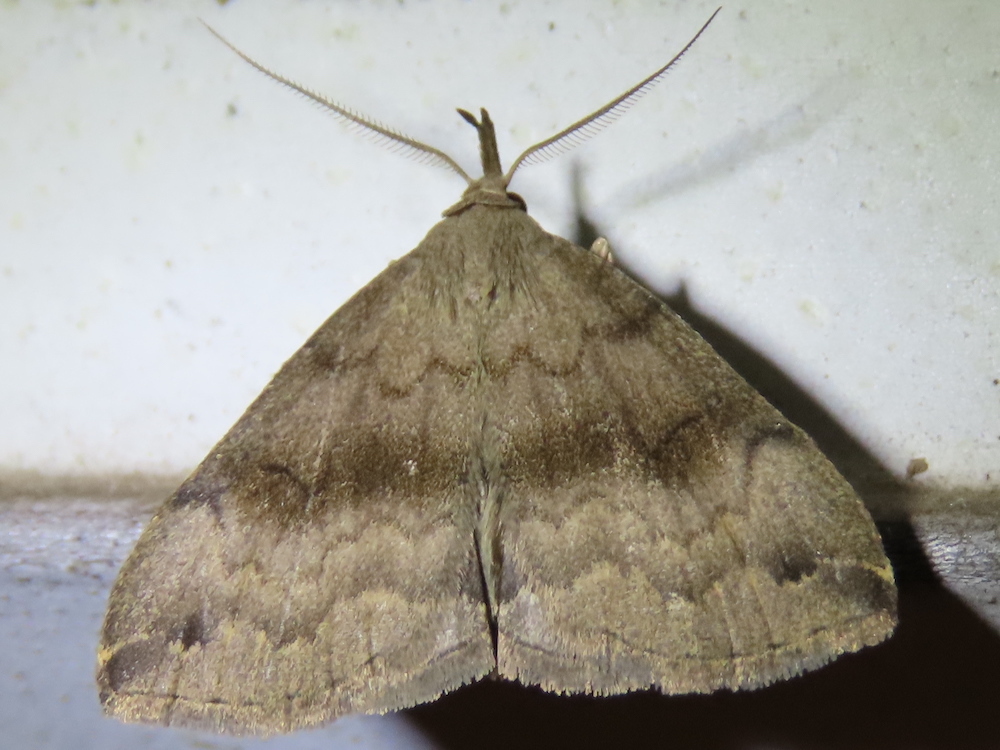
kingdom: Animalia
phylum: Arthropoda
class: Insecta
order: Lepidoptera
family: Erebidae
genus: Phalaenostola
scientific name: Phalaenostola eumelusalis
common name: Dark phalaenostola moth
